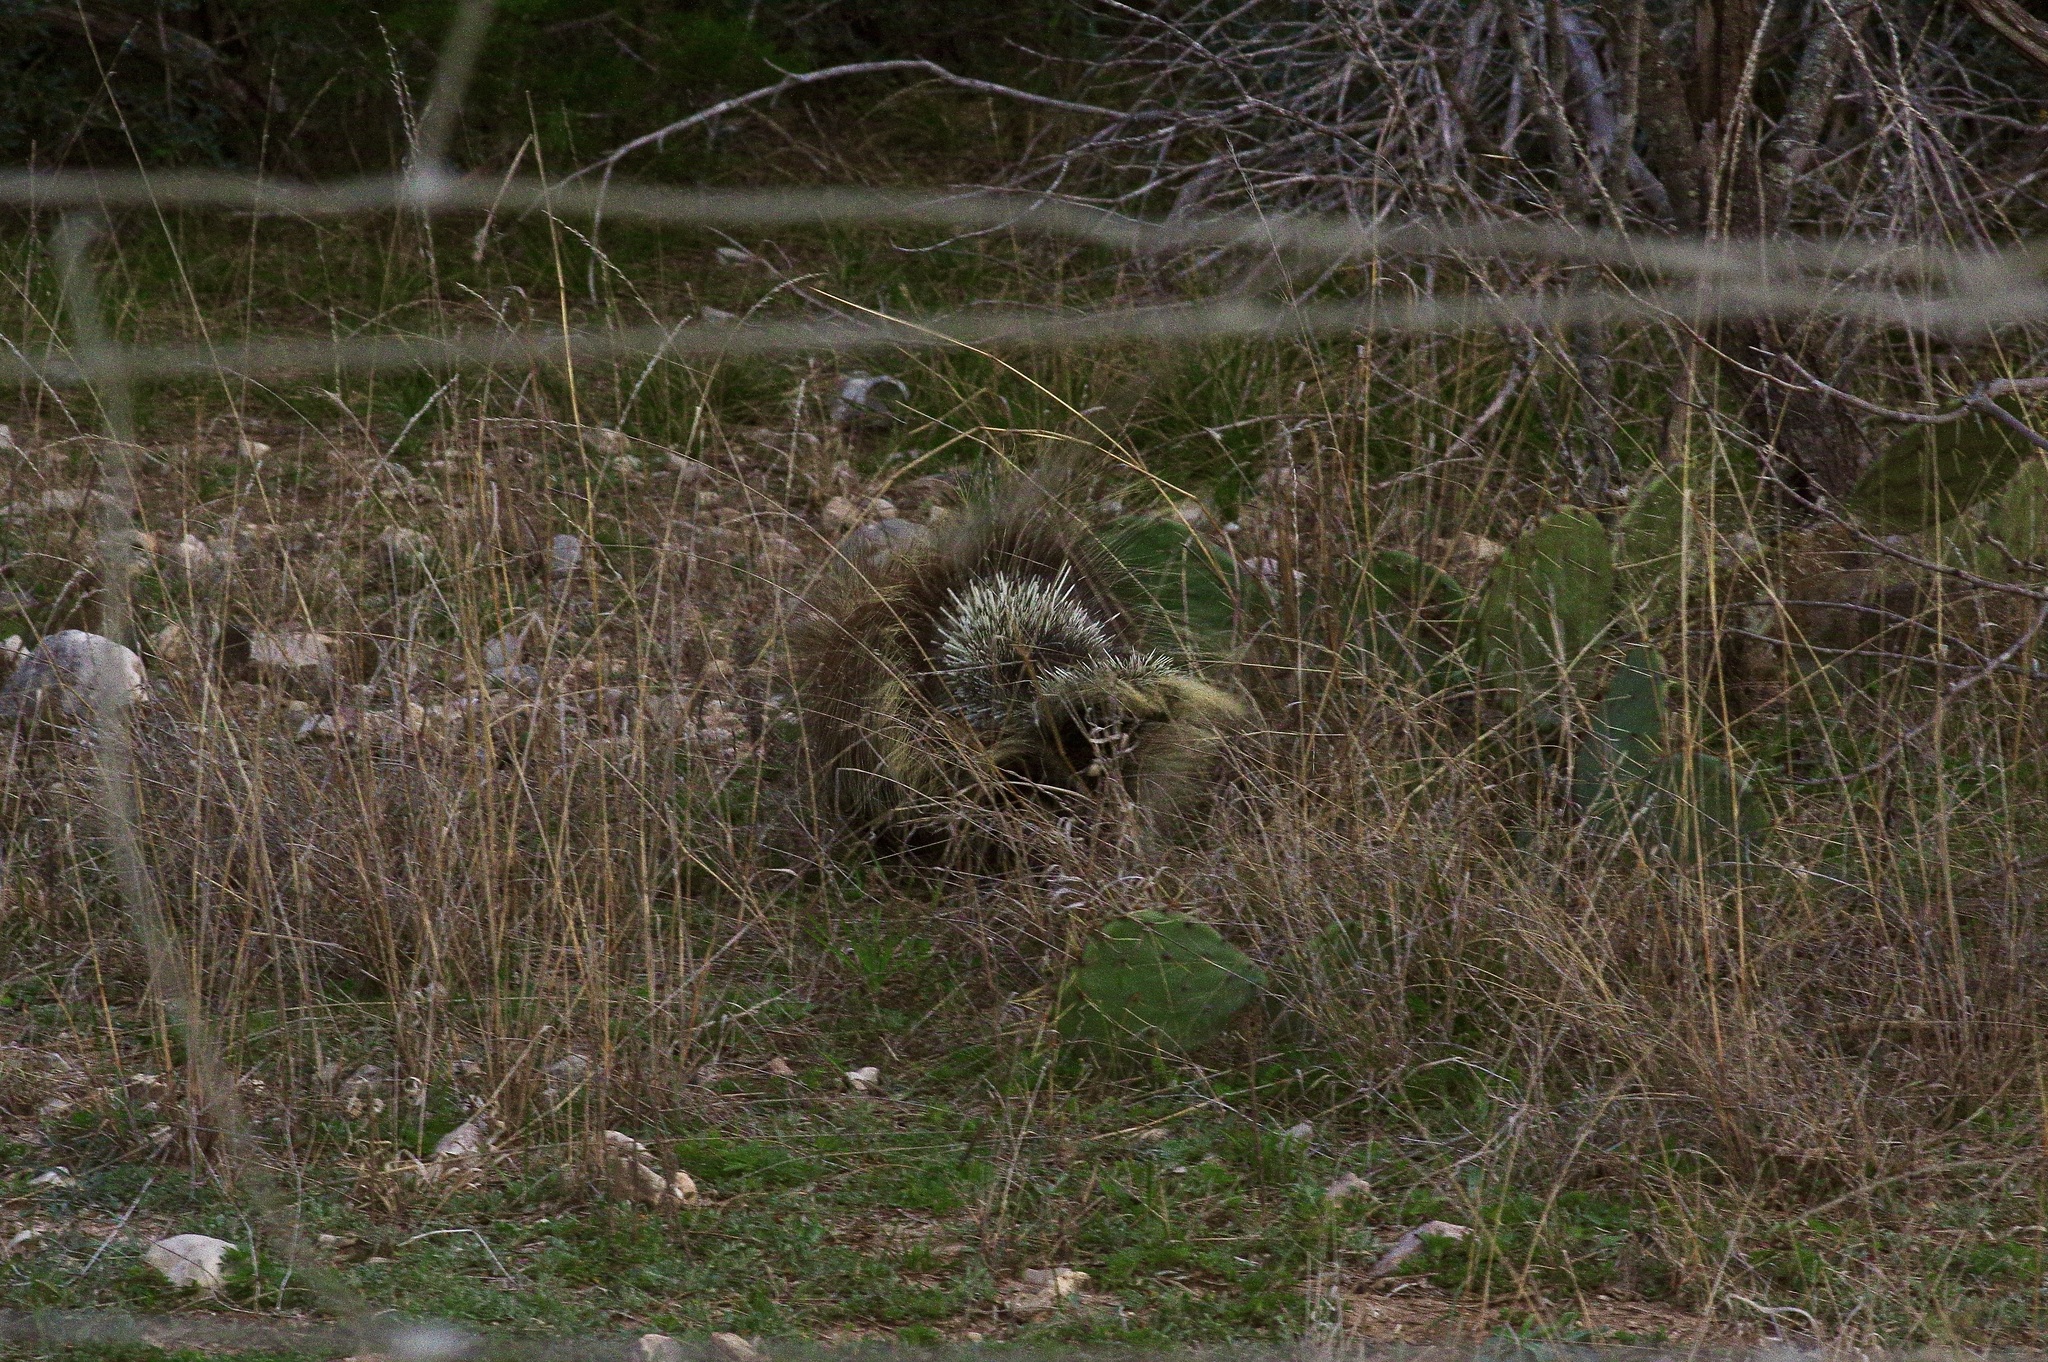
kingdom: Animalia
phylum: Chordata
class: Mammalia
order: Rodentia
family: Erethizontidae
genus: Erethizon
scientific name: Erethizon dorsatus
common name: North american porcupine
